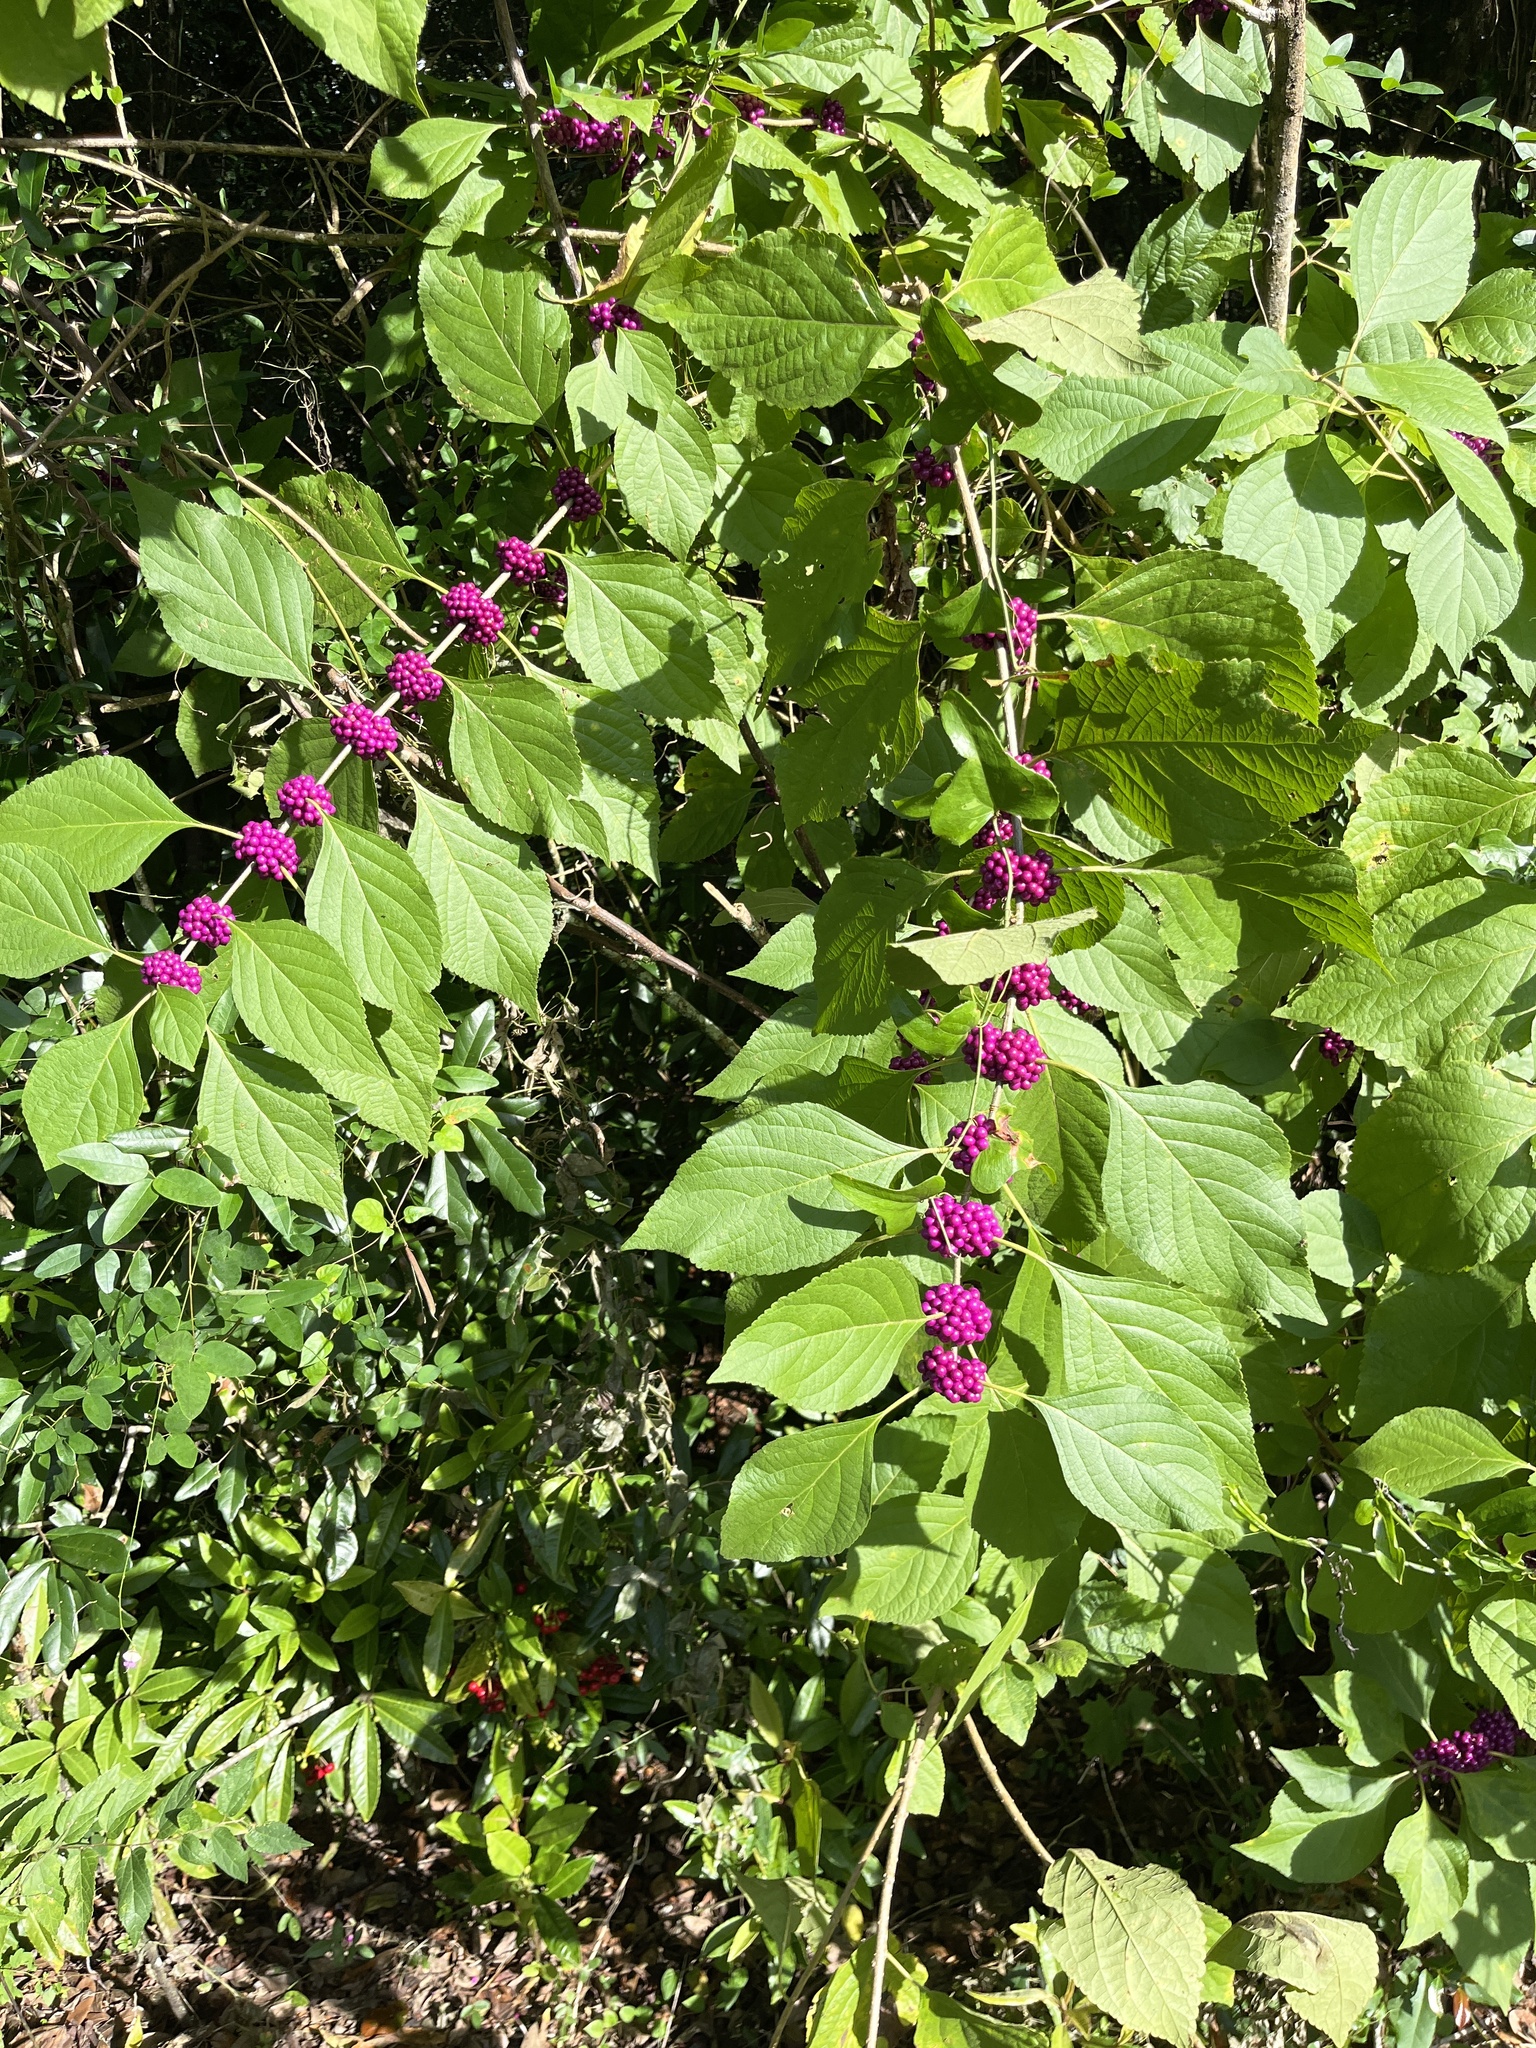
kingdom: Plantae
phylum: Tracheophyta
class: Magnoliopsida
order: Lamiales
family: Lamiaceae
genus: Callicarpa
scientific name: Callicarpa americana
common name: American beautyberry
